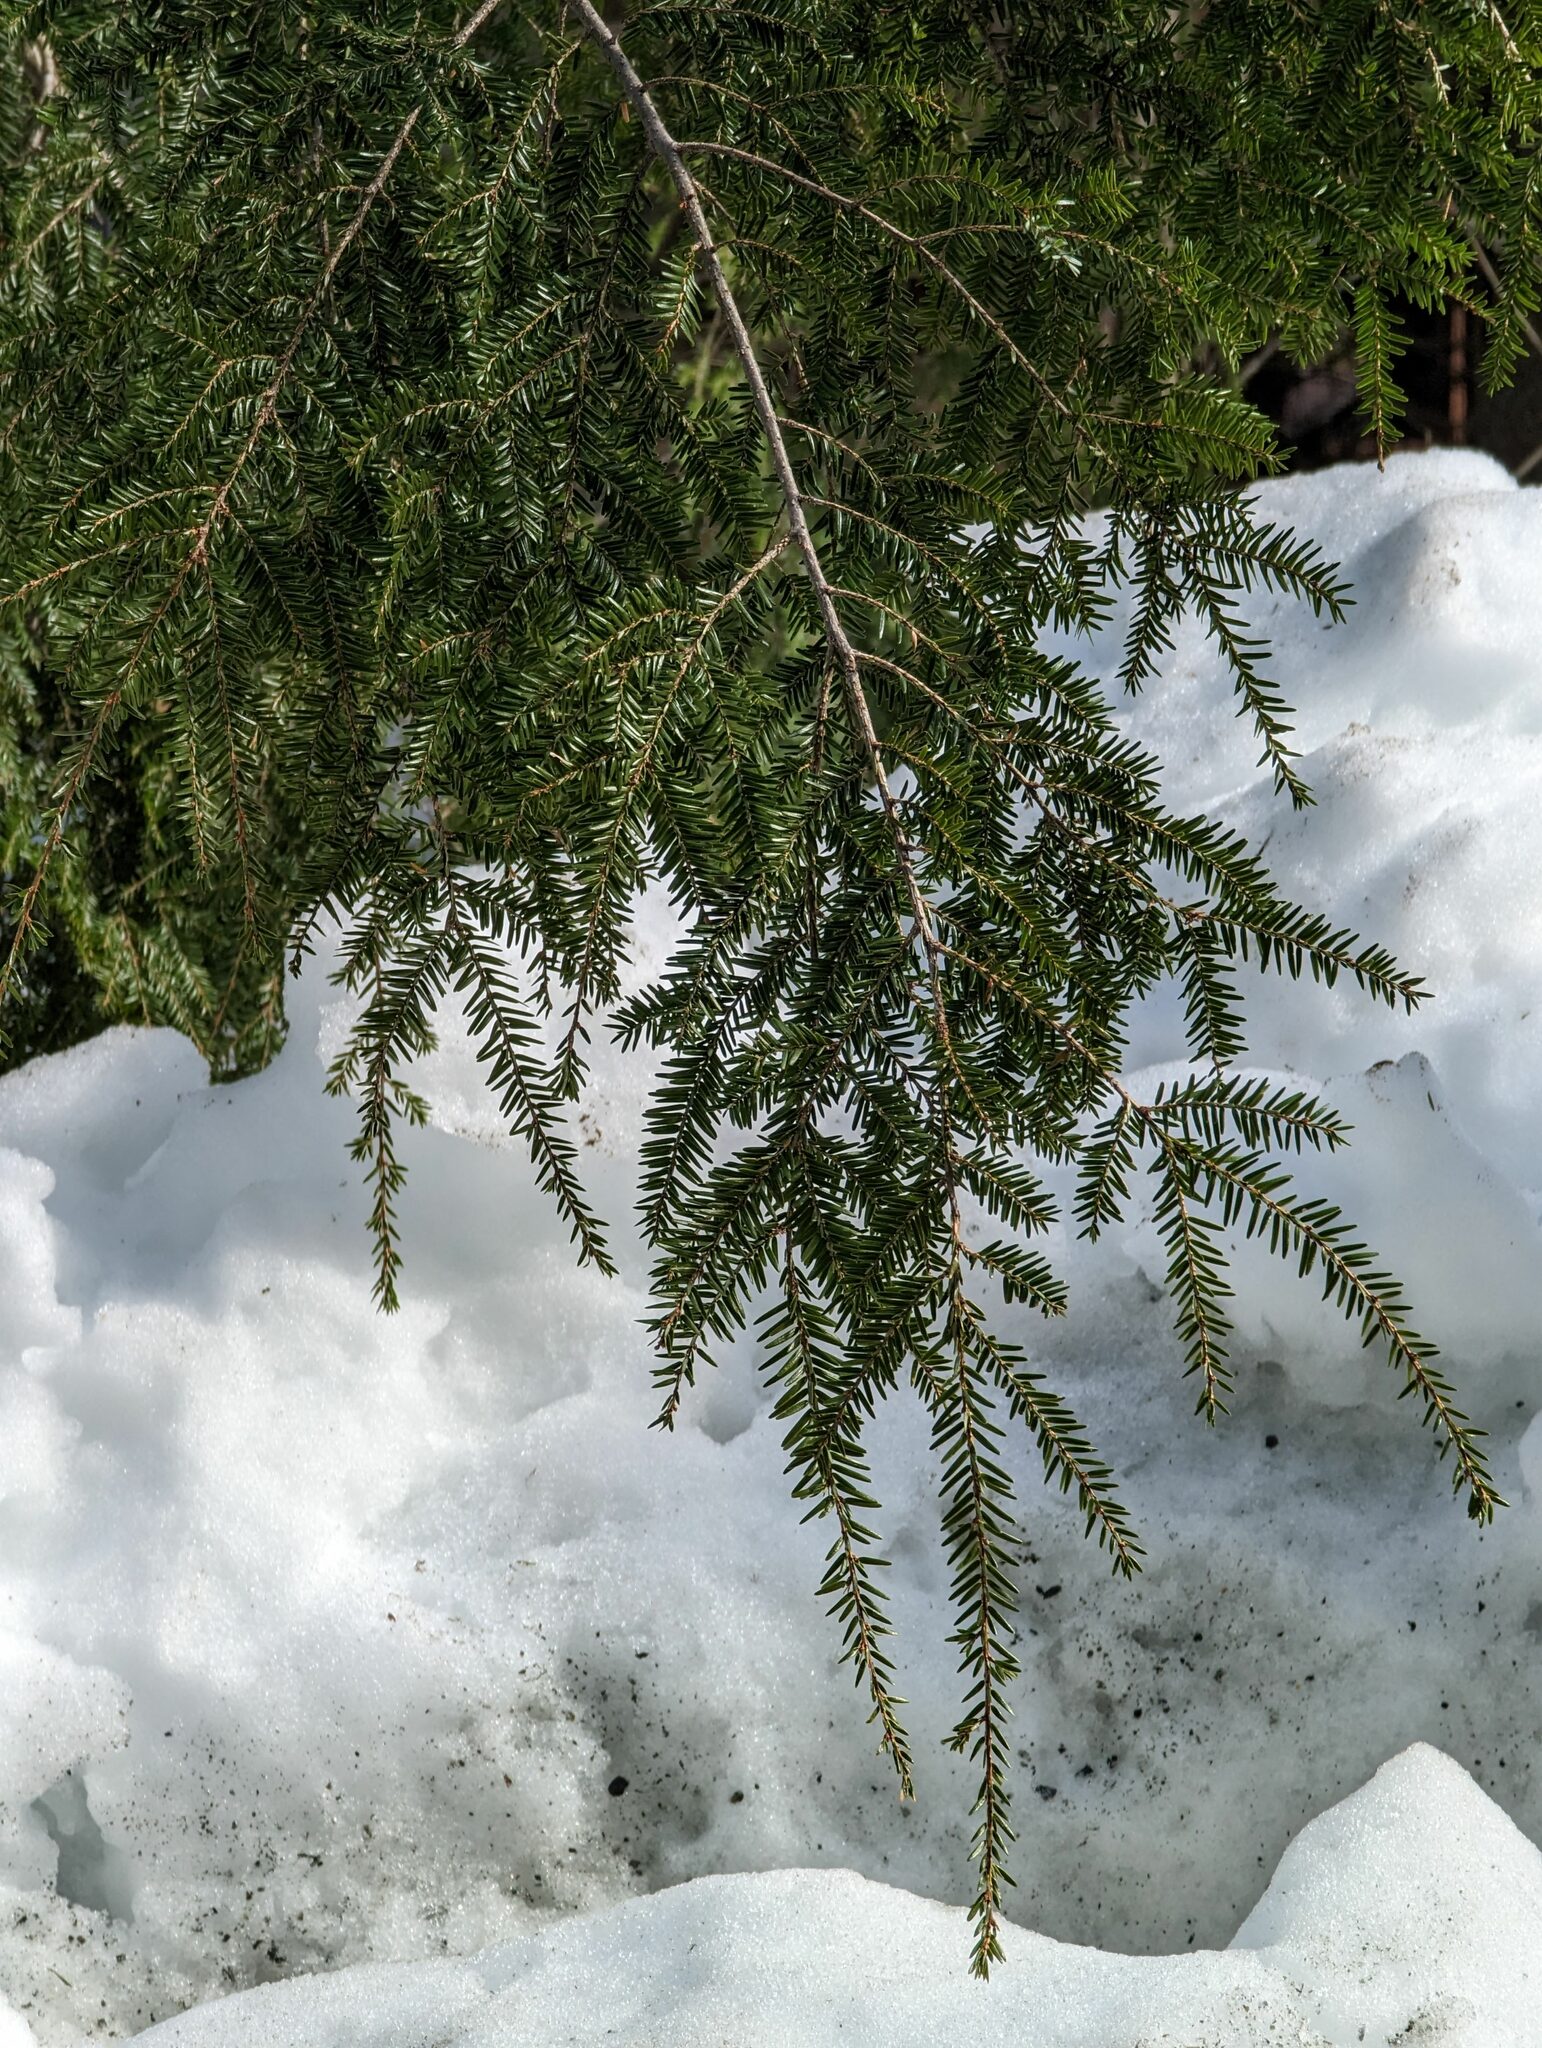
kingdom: Plantae
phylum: Tracheophyta
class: Pinopsida
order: Pinales
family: Pinaceae
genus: Tsuga
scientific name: Tsuga canadensis
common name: Eastern hemlock
